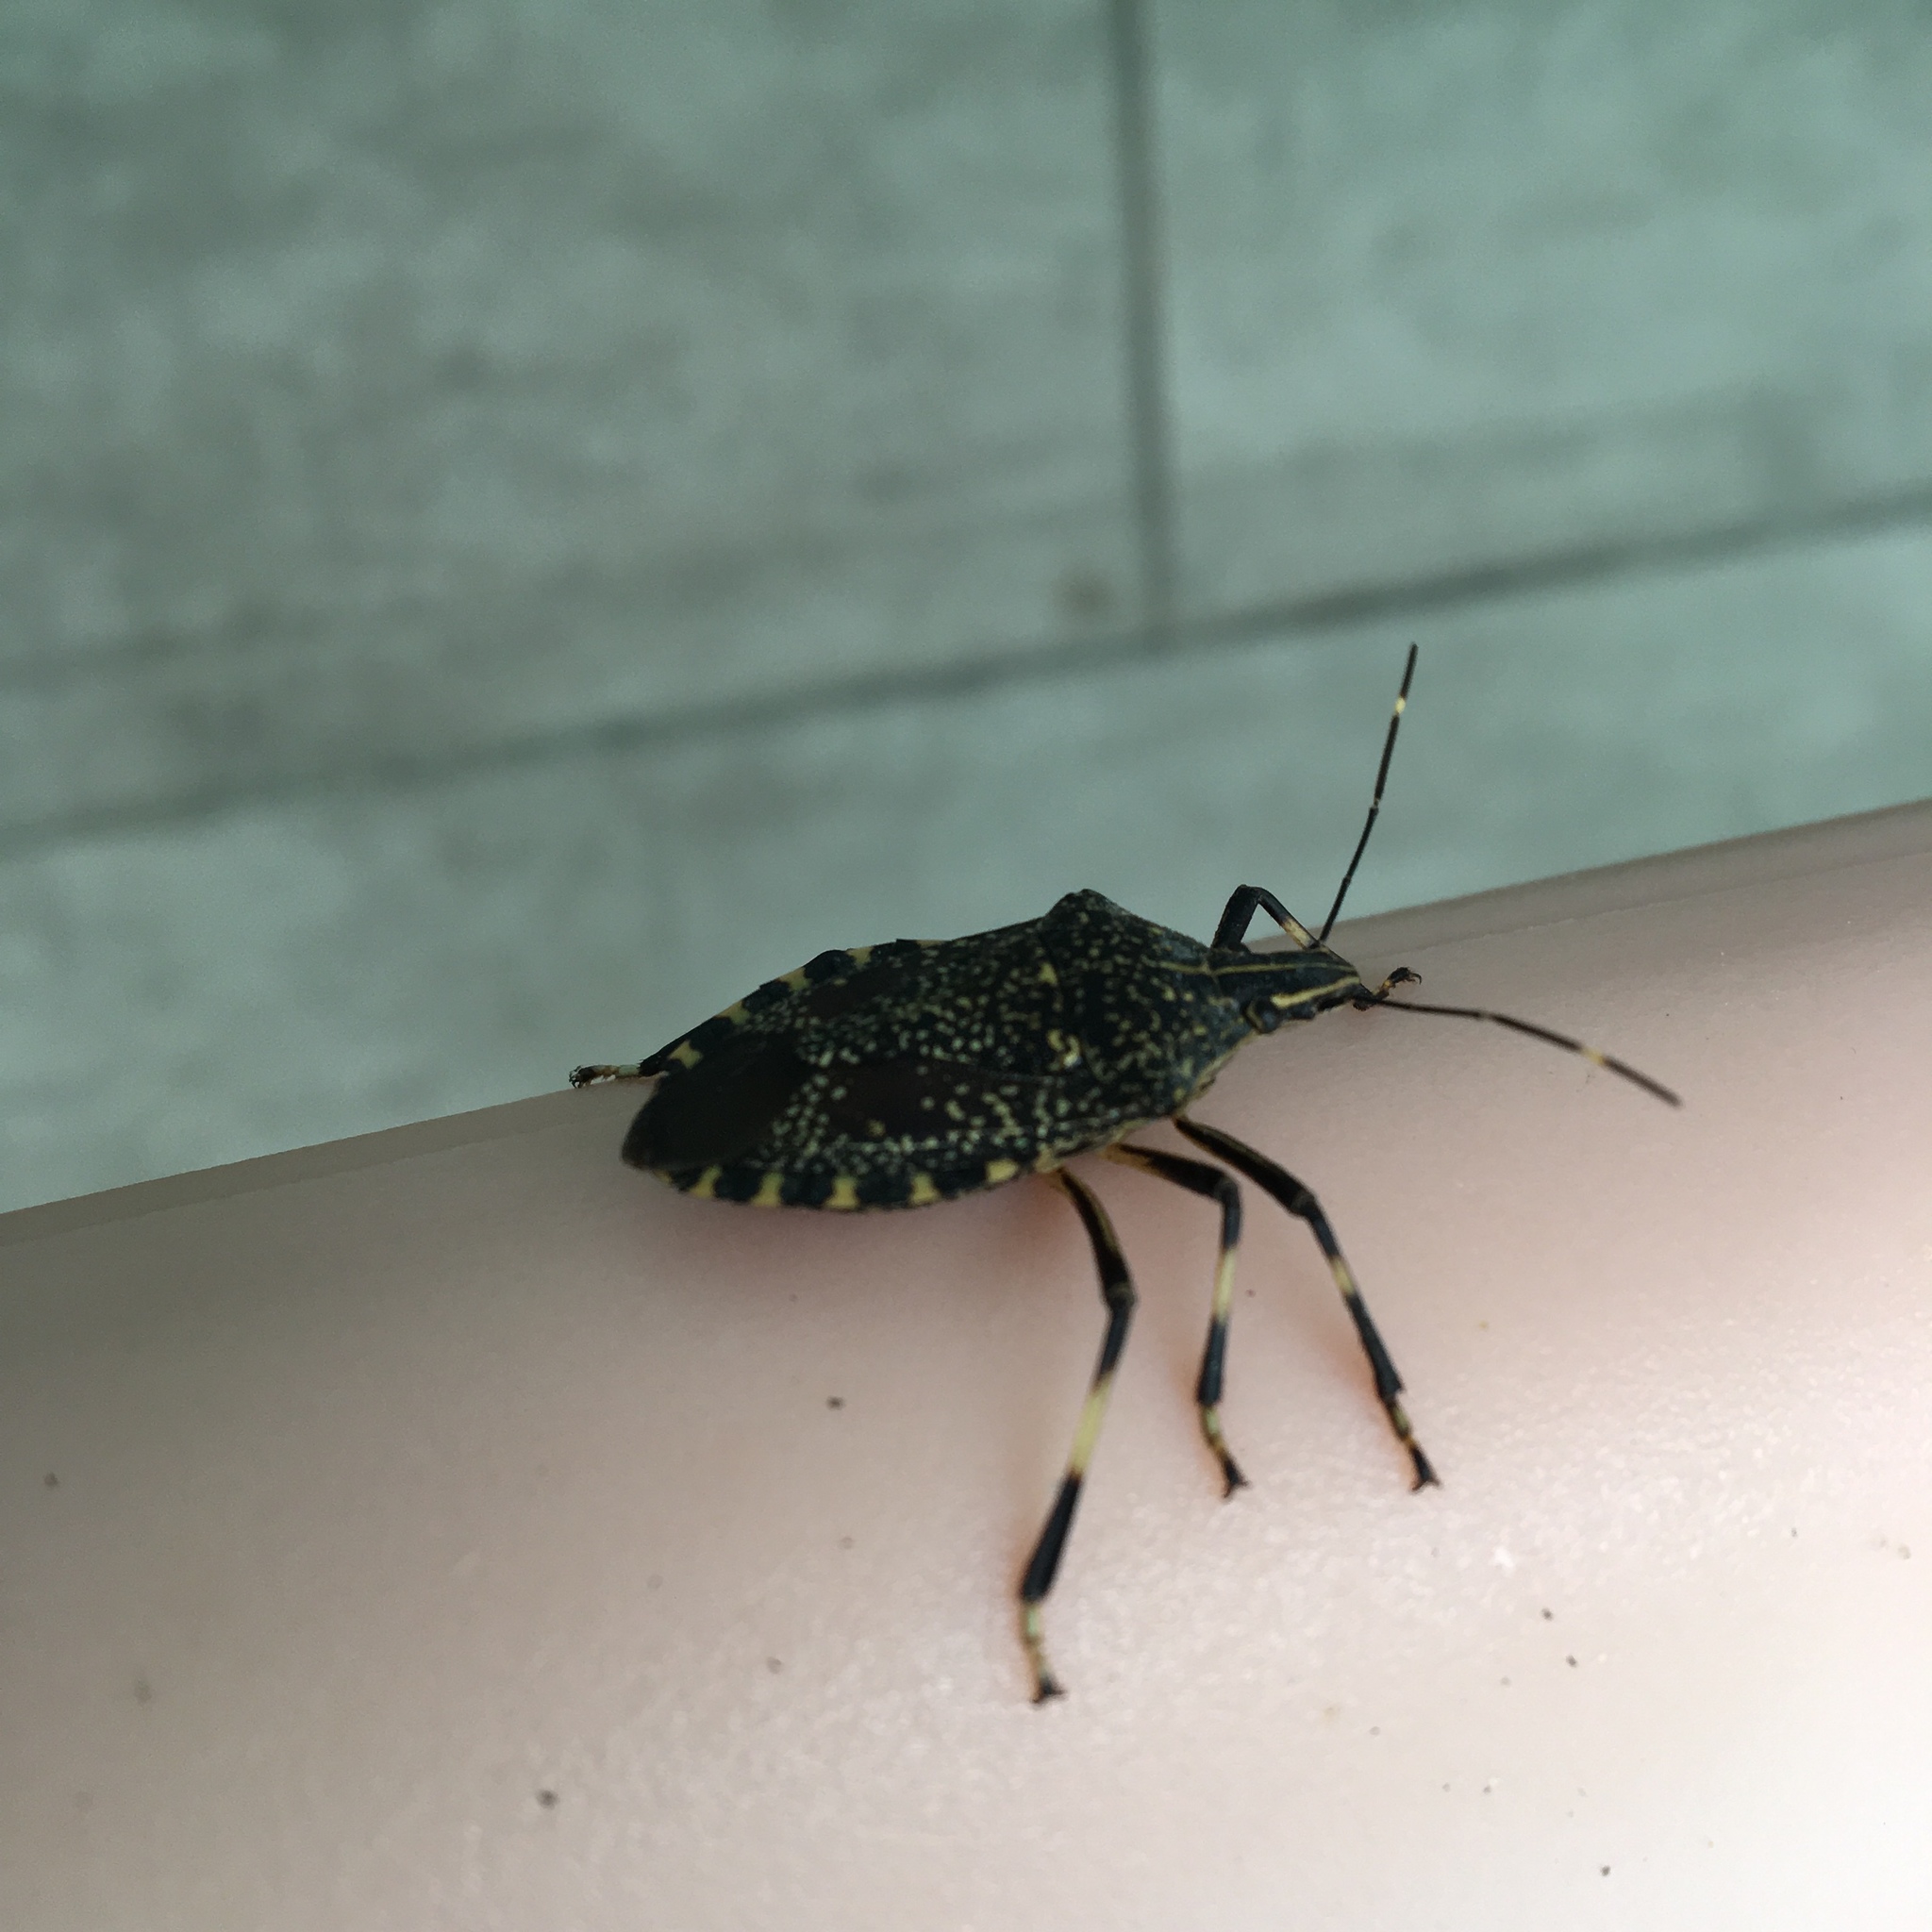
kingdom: Animalia
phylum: Arthropoda
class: Insecta
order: Hemiptera
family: Pentatomidae
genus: Erthesina
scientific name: Erthesina fullo
